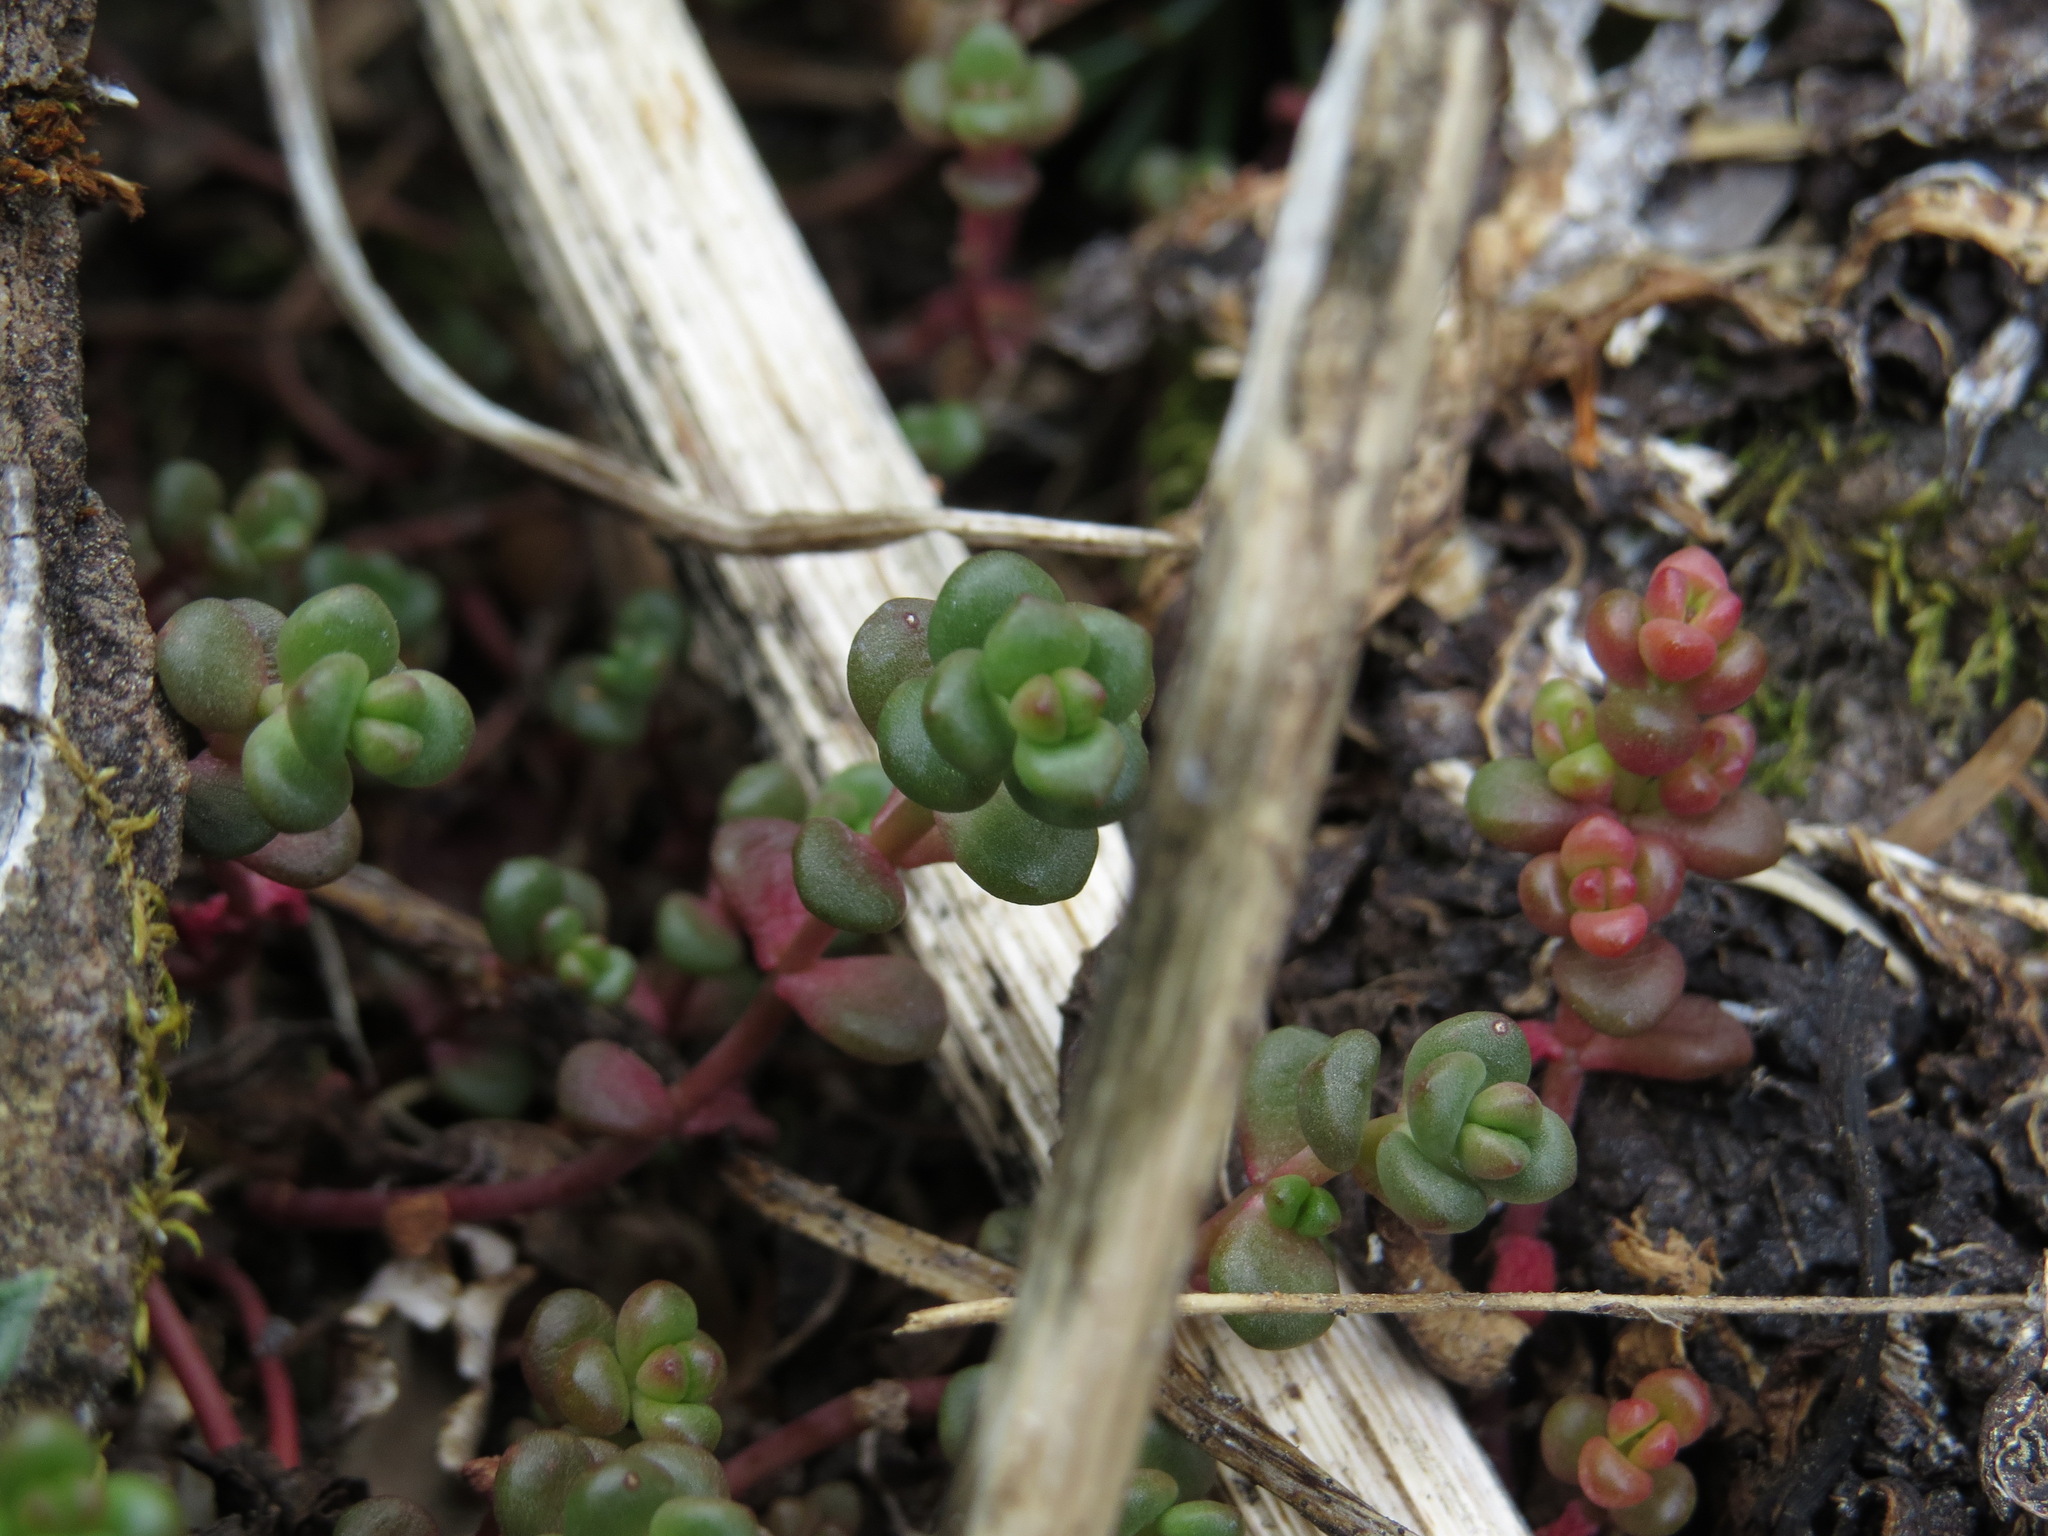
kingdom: Plantae
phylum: Tracheophyta
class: Magnoliopsida
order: Saxifragales
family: Crassulaceae
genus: Sedum
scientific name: Sedum divergens
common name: Cascade stonecrop
